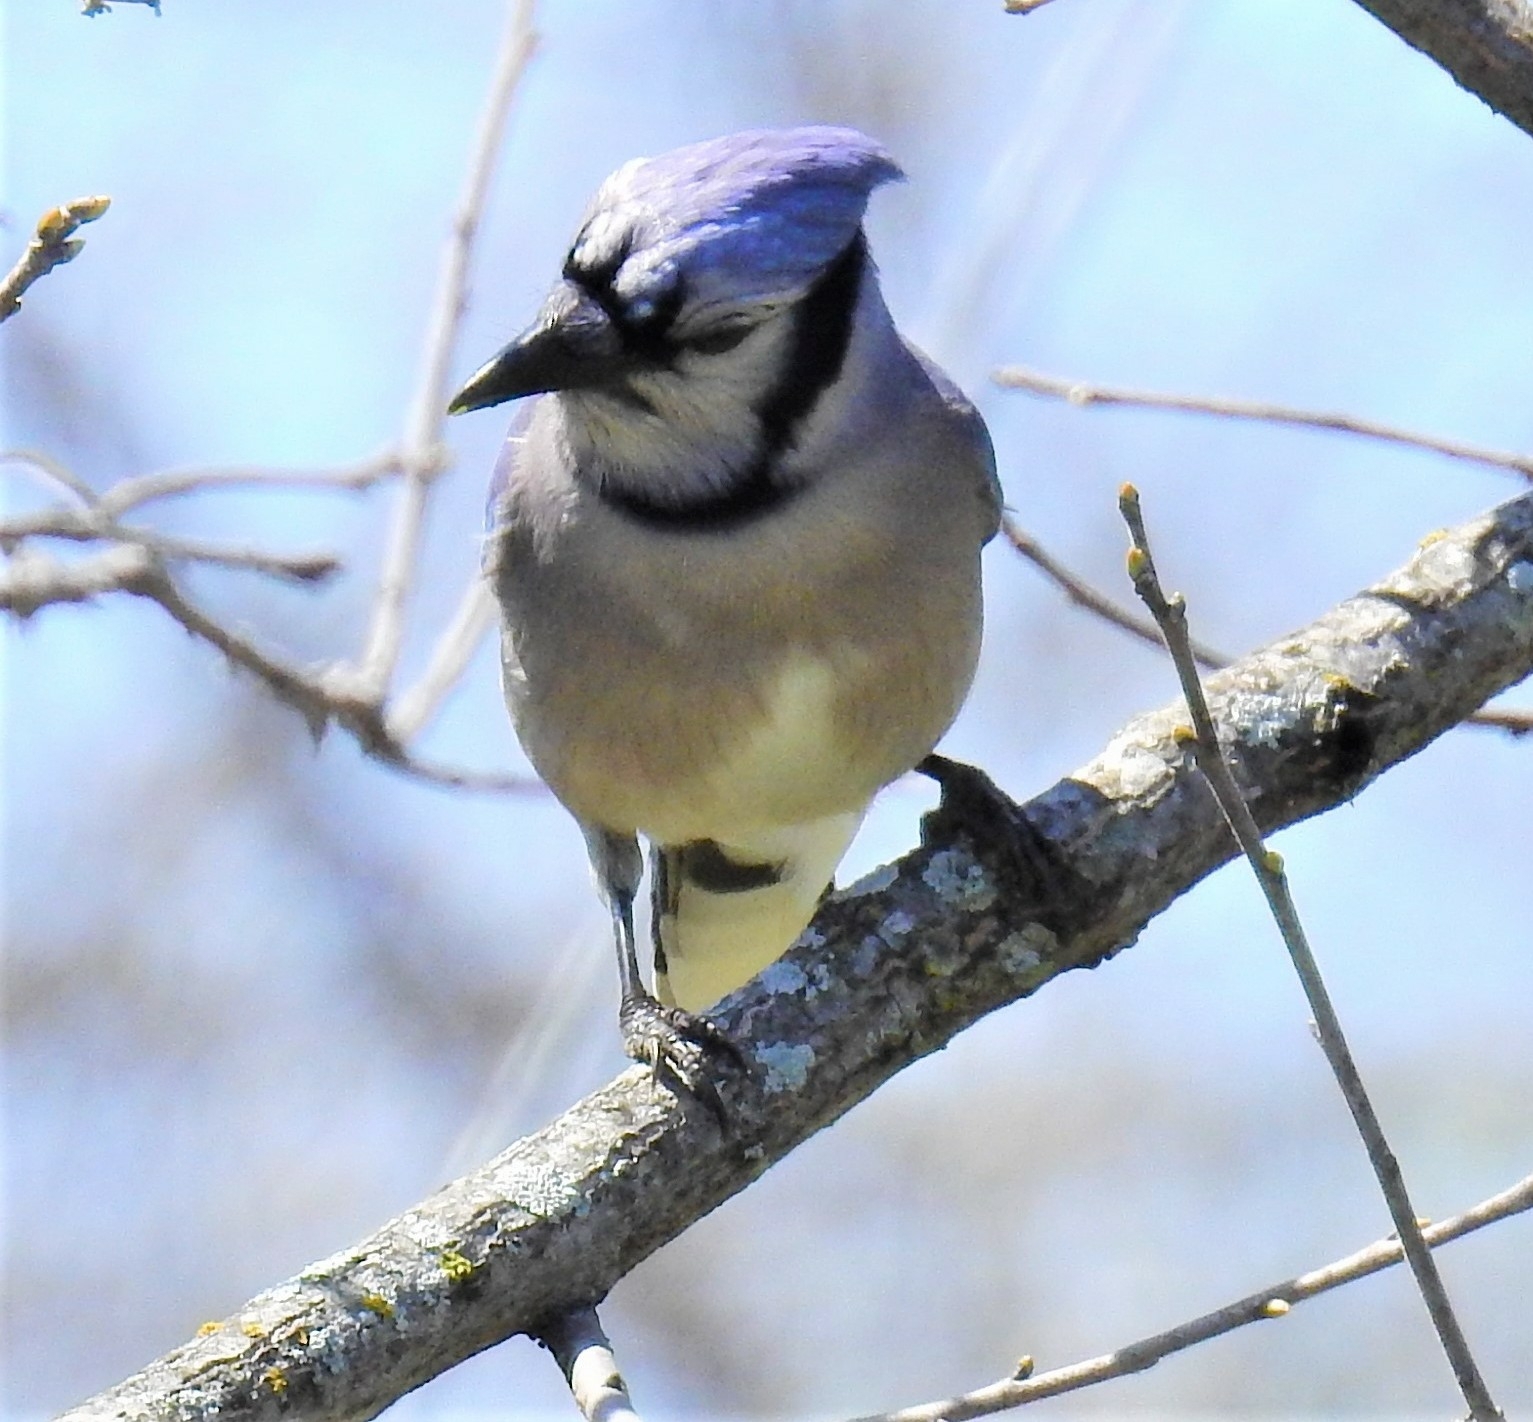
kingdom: Animalia
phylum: Chordata
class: Aves
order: Passeriformes
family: Corvidae
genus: Cyanocitta
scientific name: Cyanocitta cristata
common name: Blue jay
